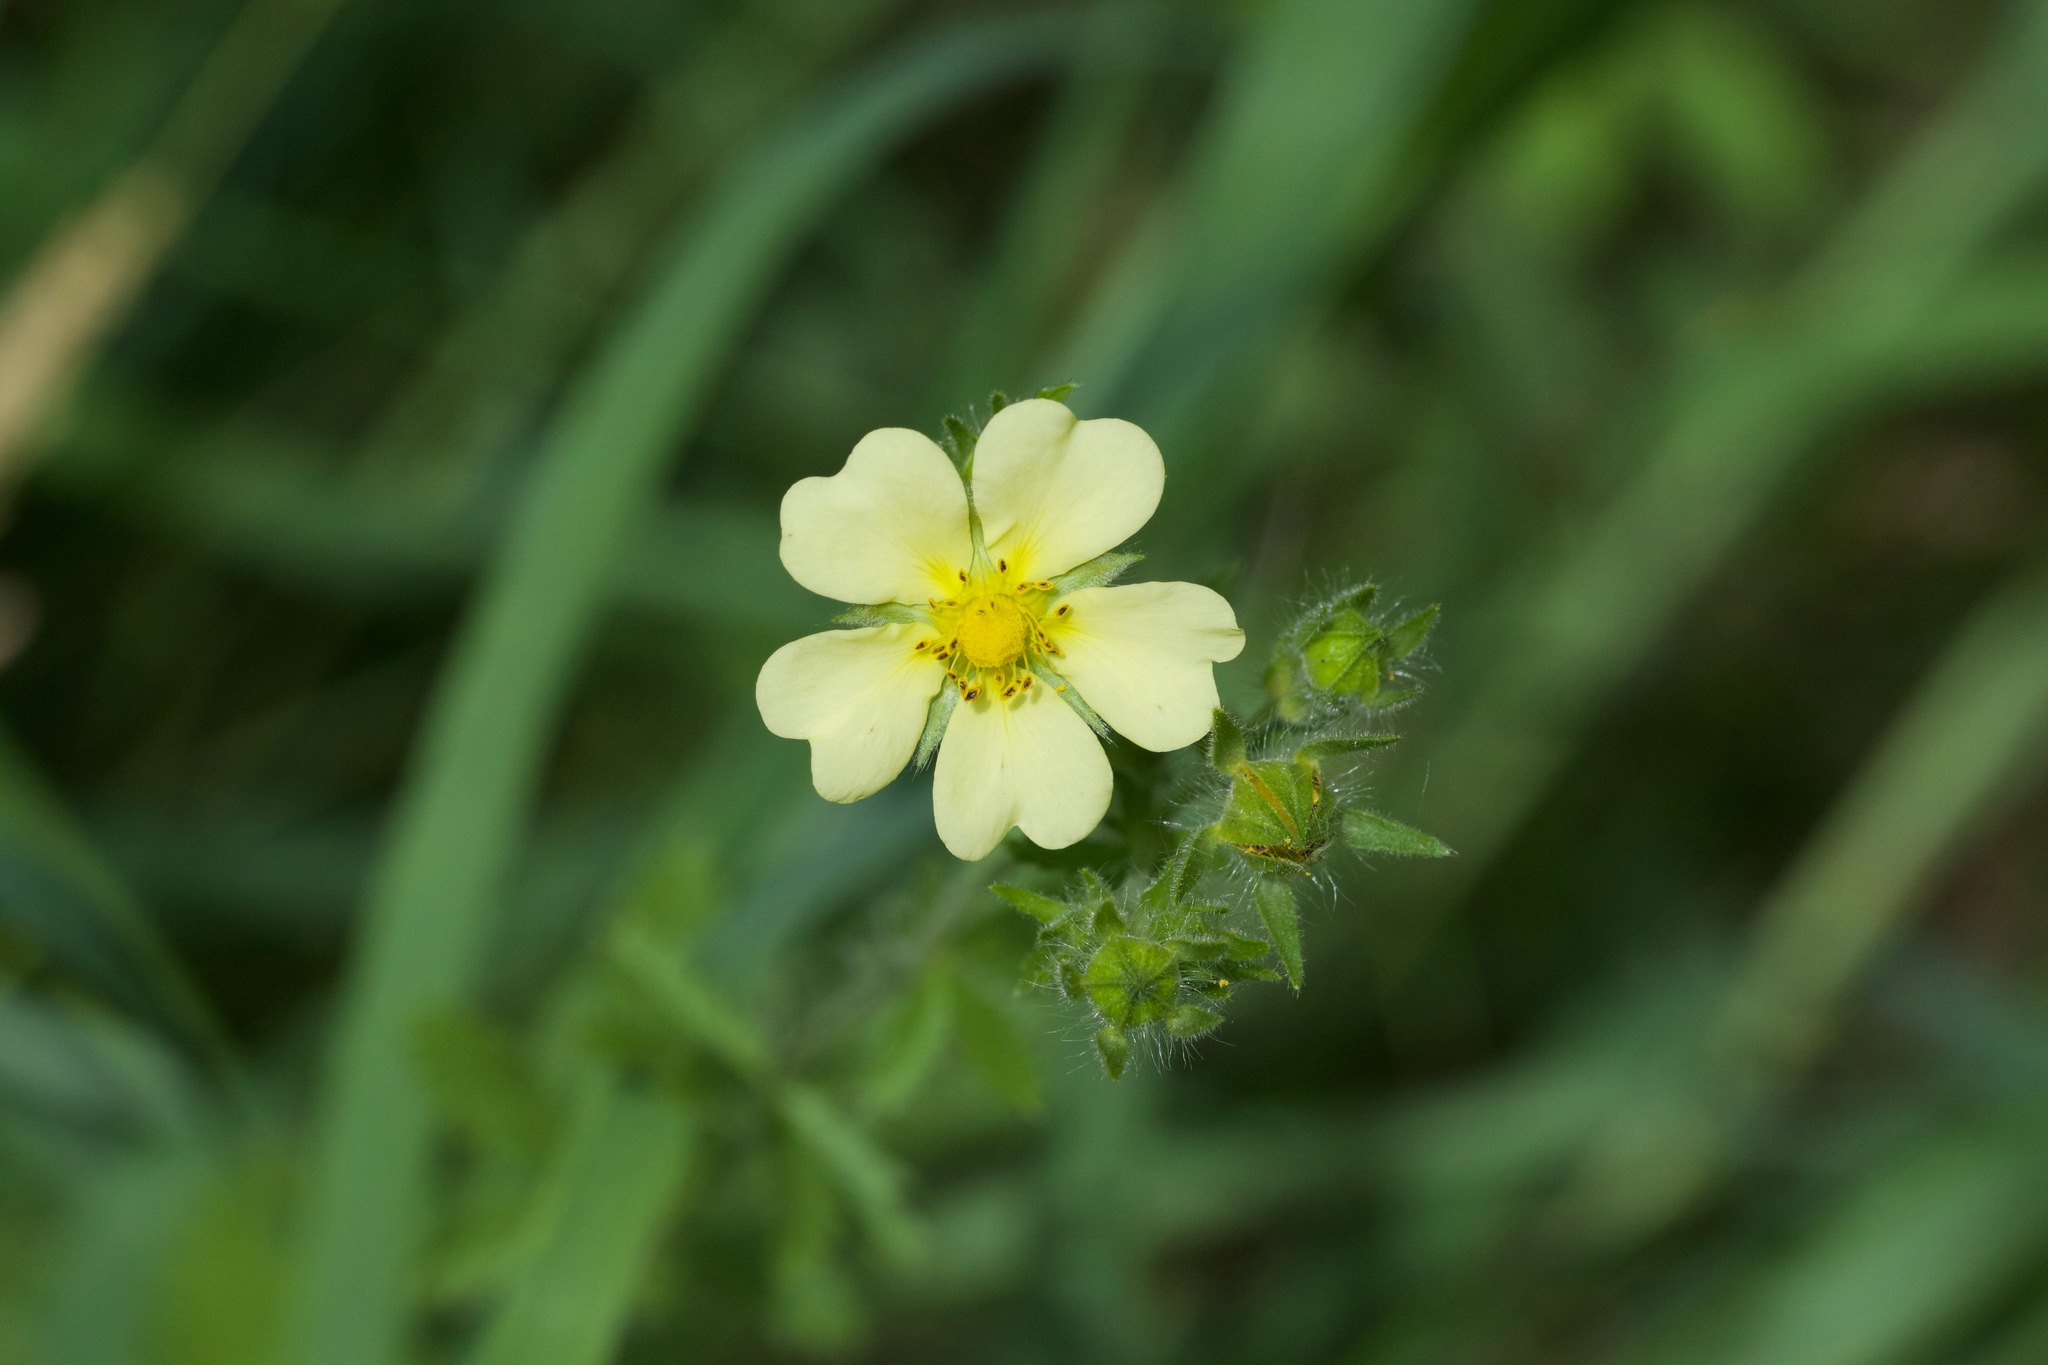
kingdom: Plantae
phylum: Tracheophyta
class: Magnoliopsida
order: Rosales
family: Rosaceae
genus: Potentilla
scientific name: Potentilla recta
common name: Sulphur cinquefoil
